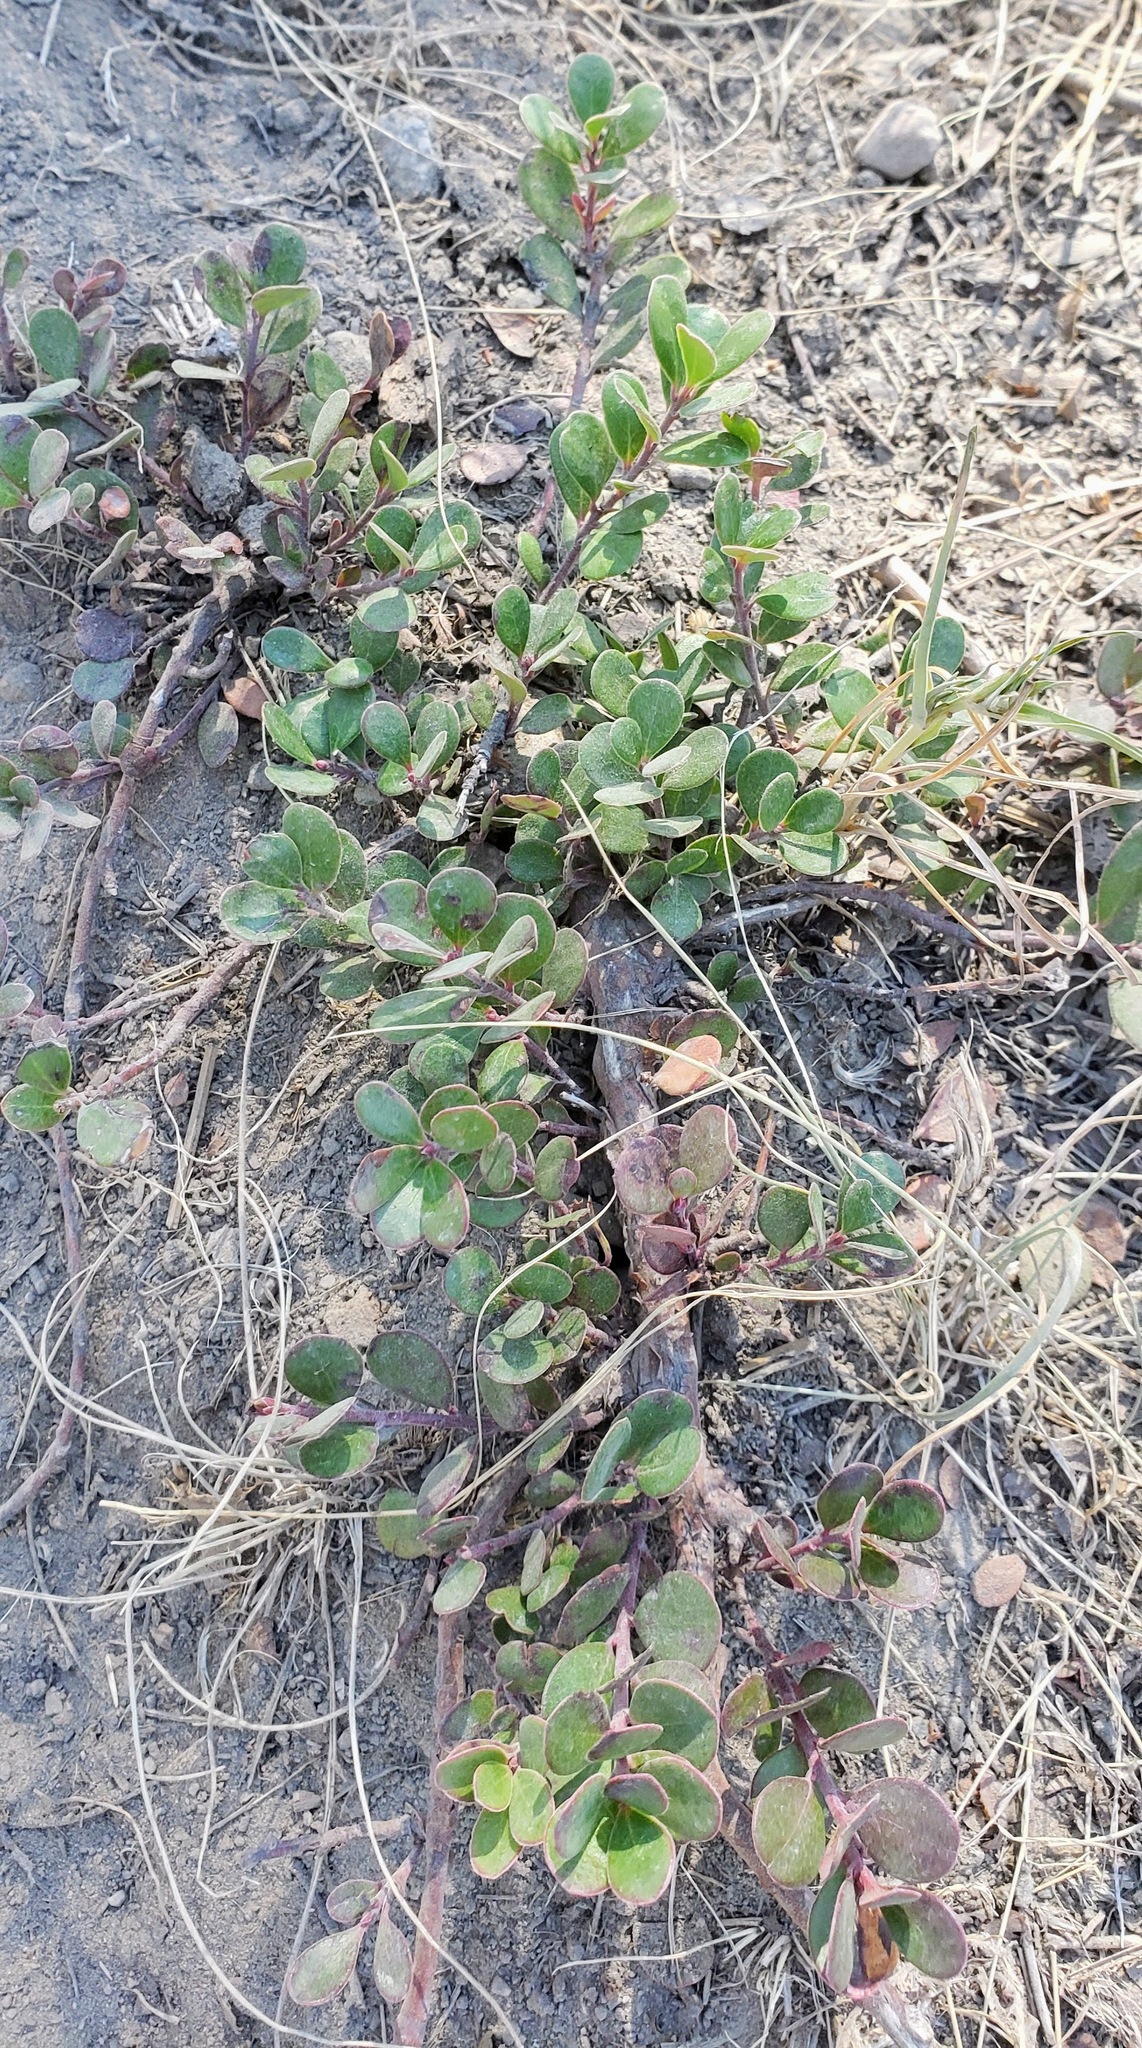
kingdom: Plantae
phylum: Tracheophyta
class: Magnoliopsida
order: Ericales
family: Ericaceae
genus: Arctostaphylos
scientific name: Arctostaphylos uva-ursi
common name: Bearberry
